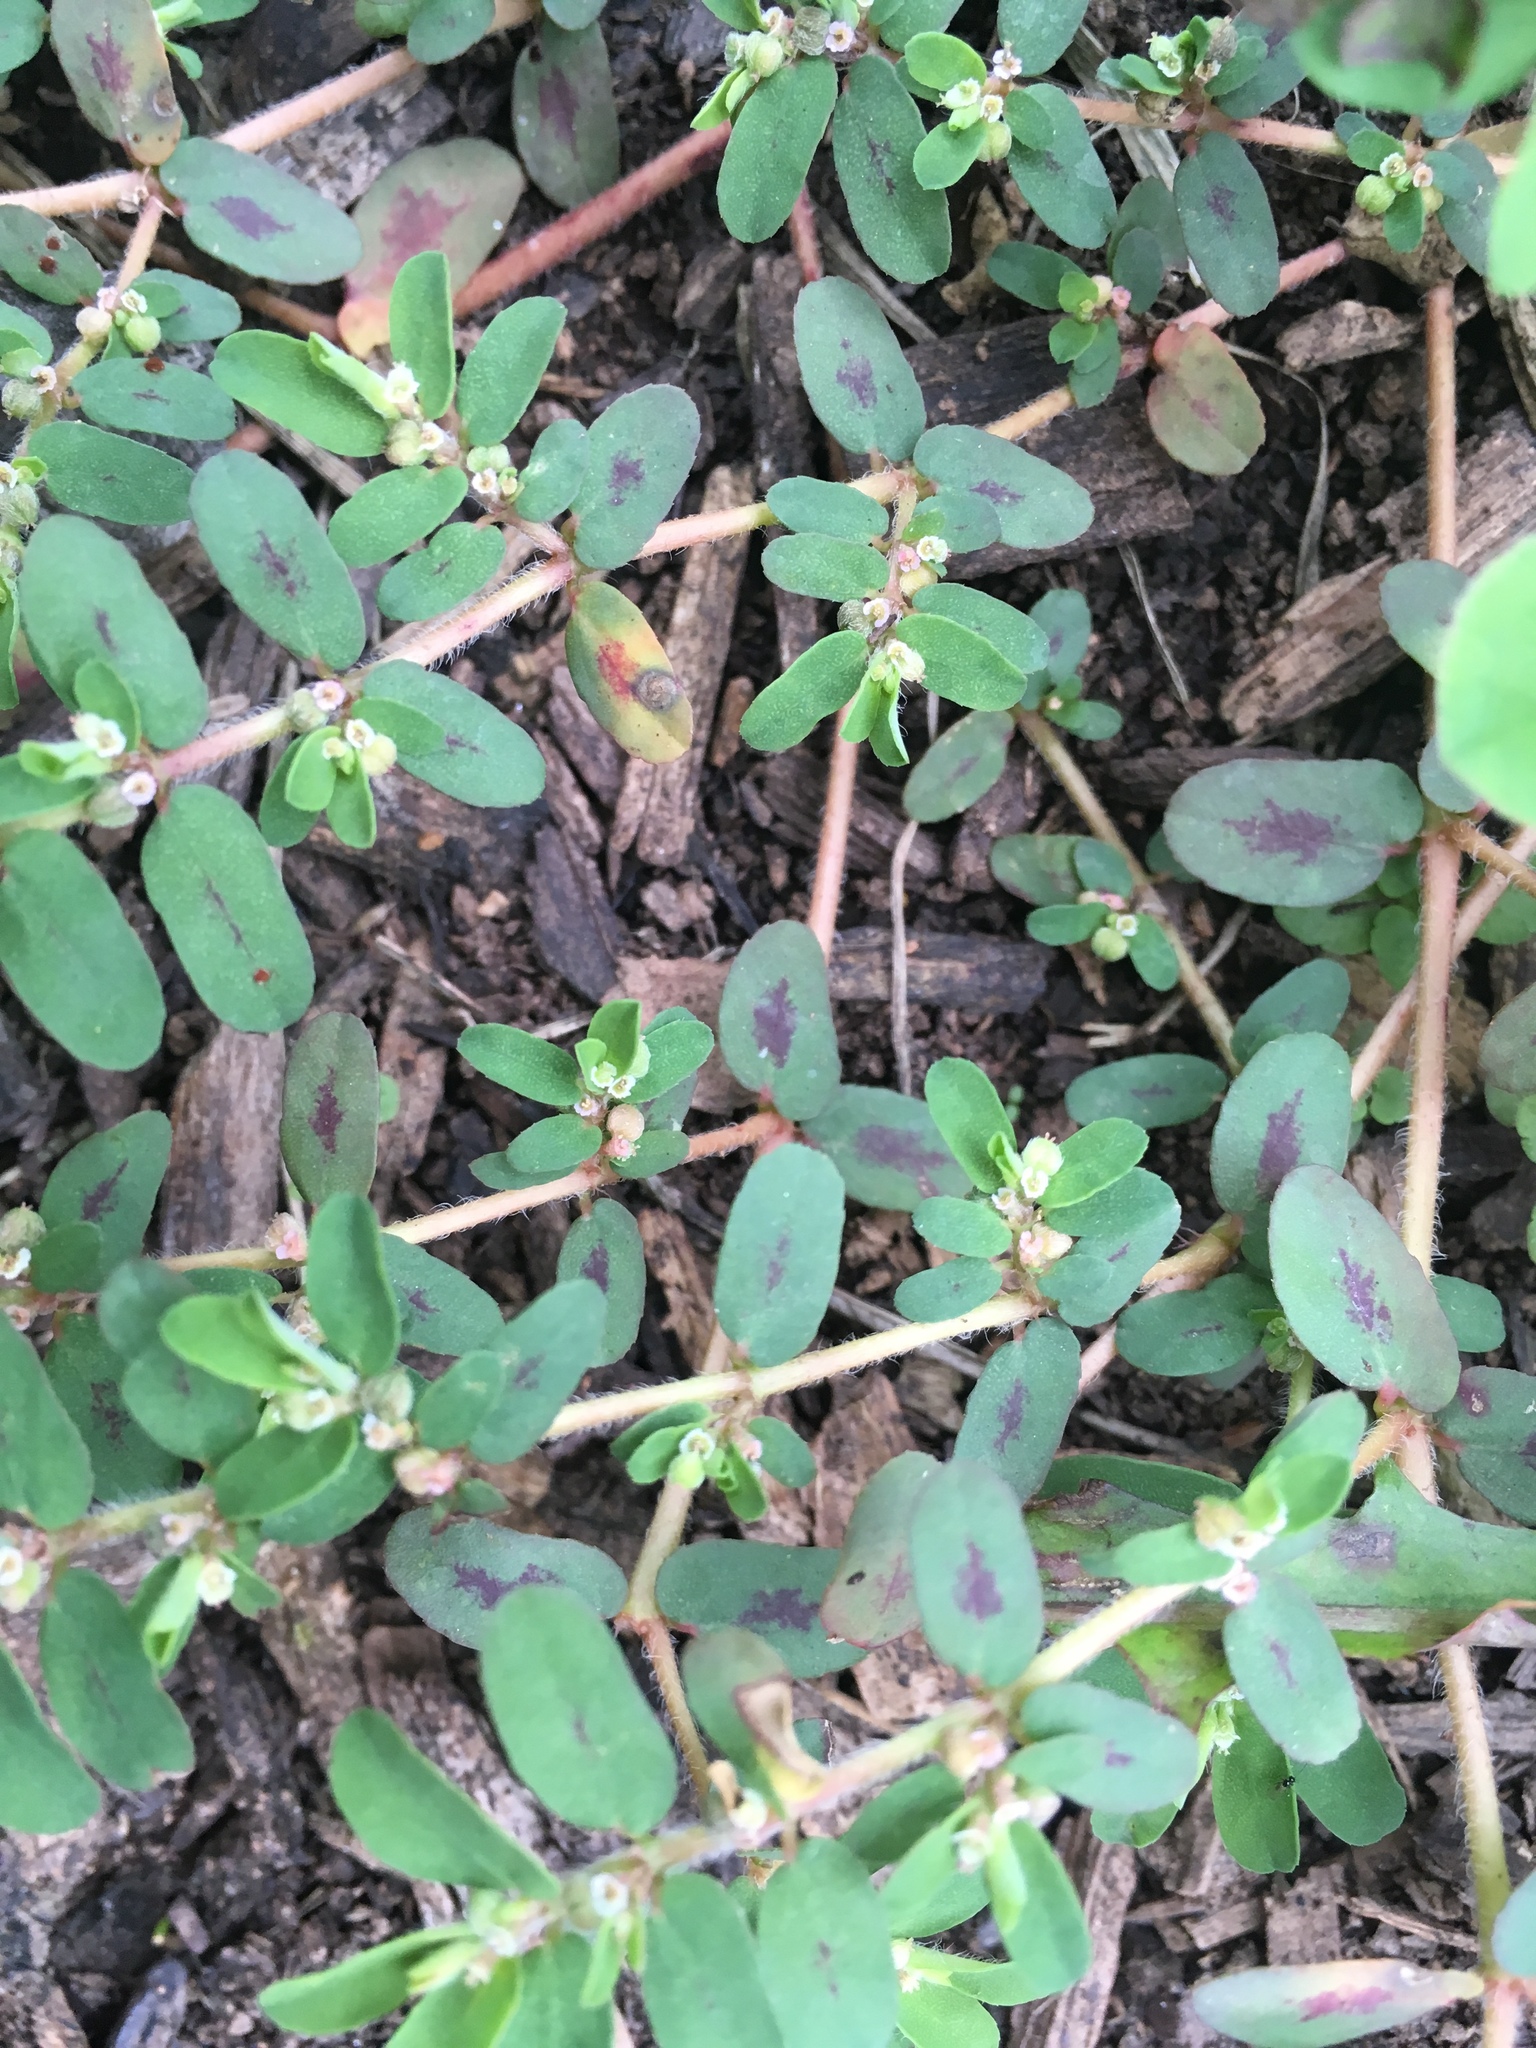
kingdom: Plantae
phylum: Tracheophyta
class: Magnoliopsida
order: Malpighiales
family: Euphorbiaceae
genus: Euphorbia
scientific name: Euphorbia maculata
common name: Spotted spurge
